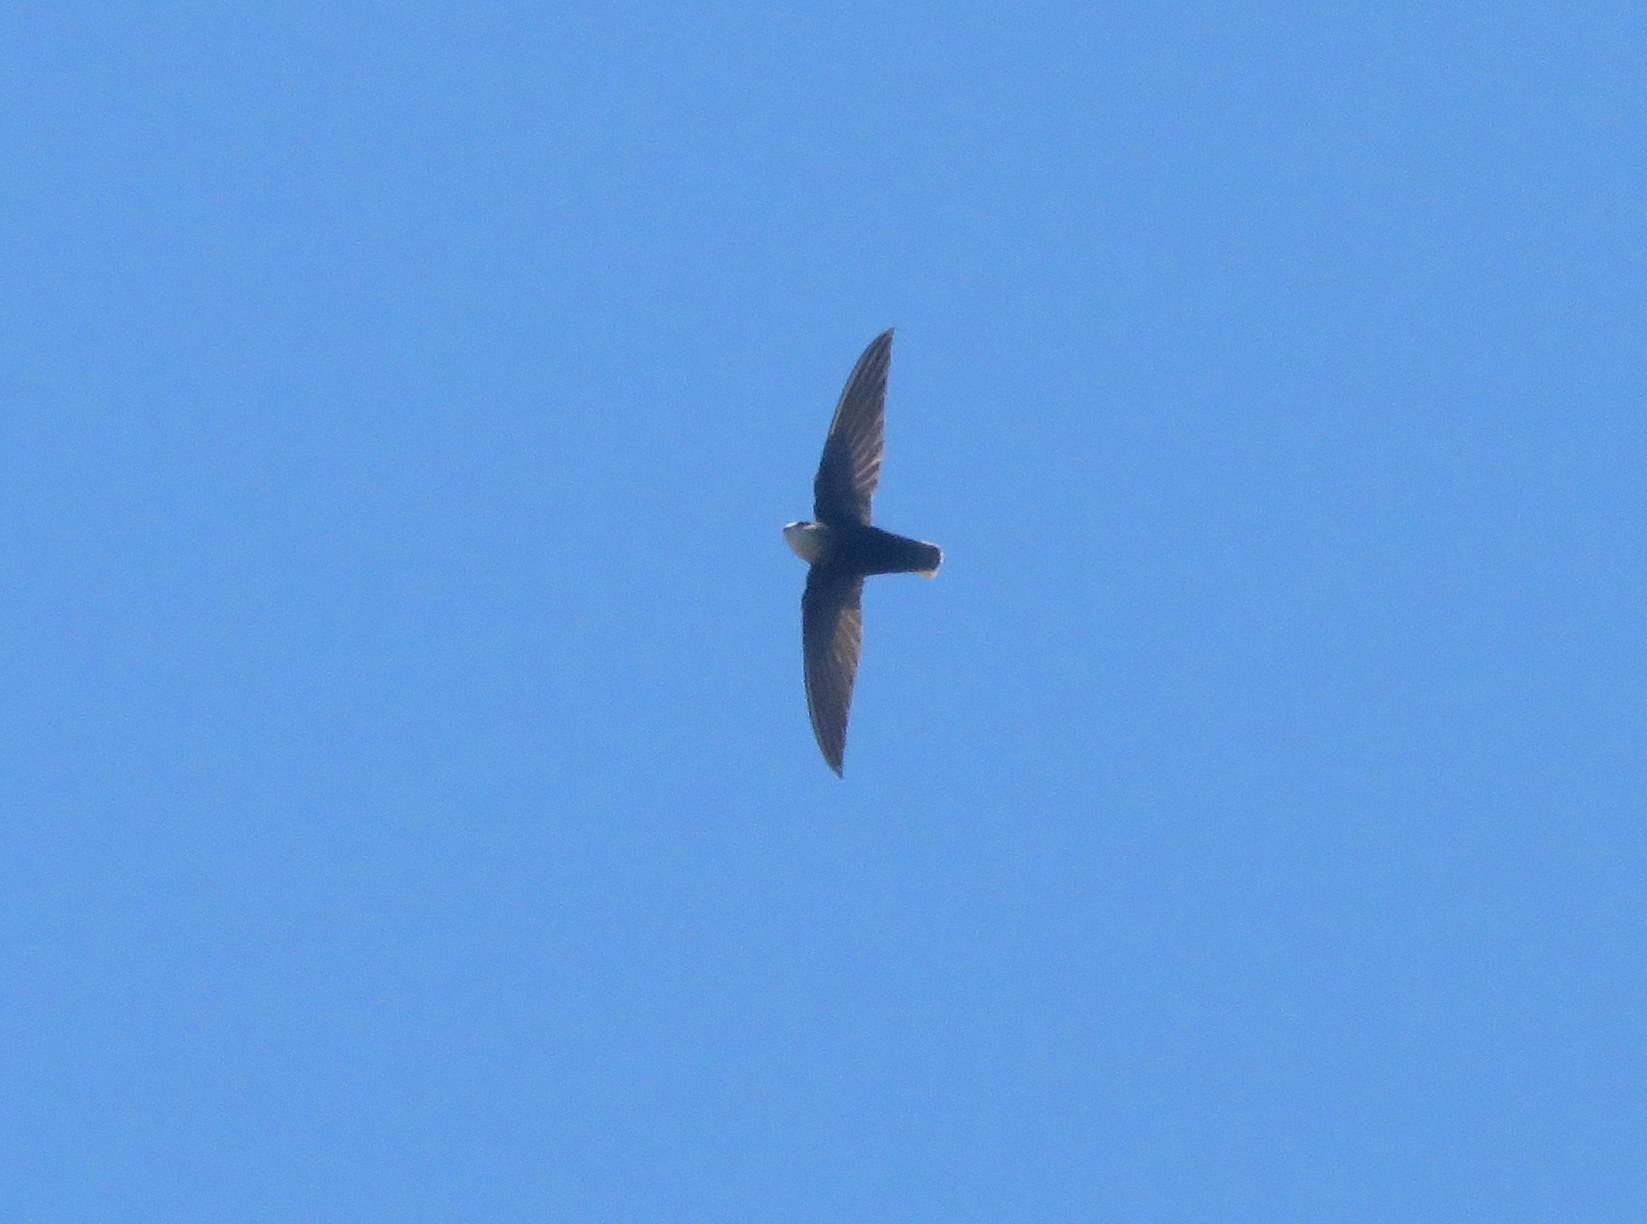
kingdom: Animalia
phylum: Chordata
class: Aves
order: Apodiformes
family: Apodidae
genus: Chaetura
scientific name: Chaetura meridionalis
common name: Sick's swift
